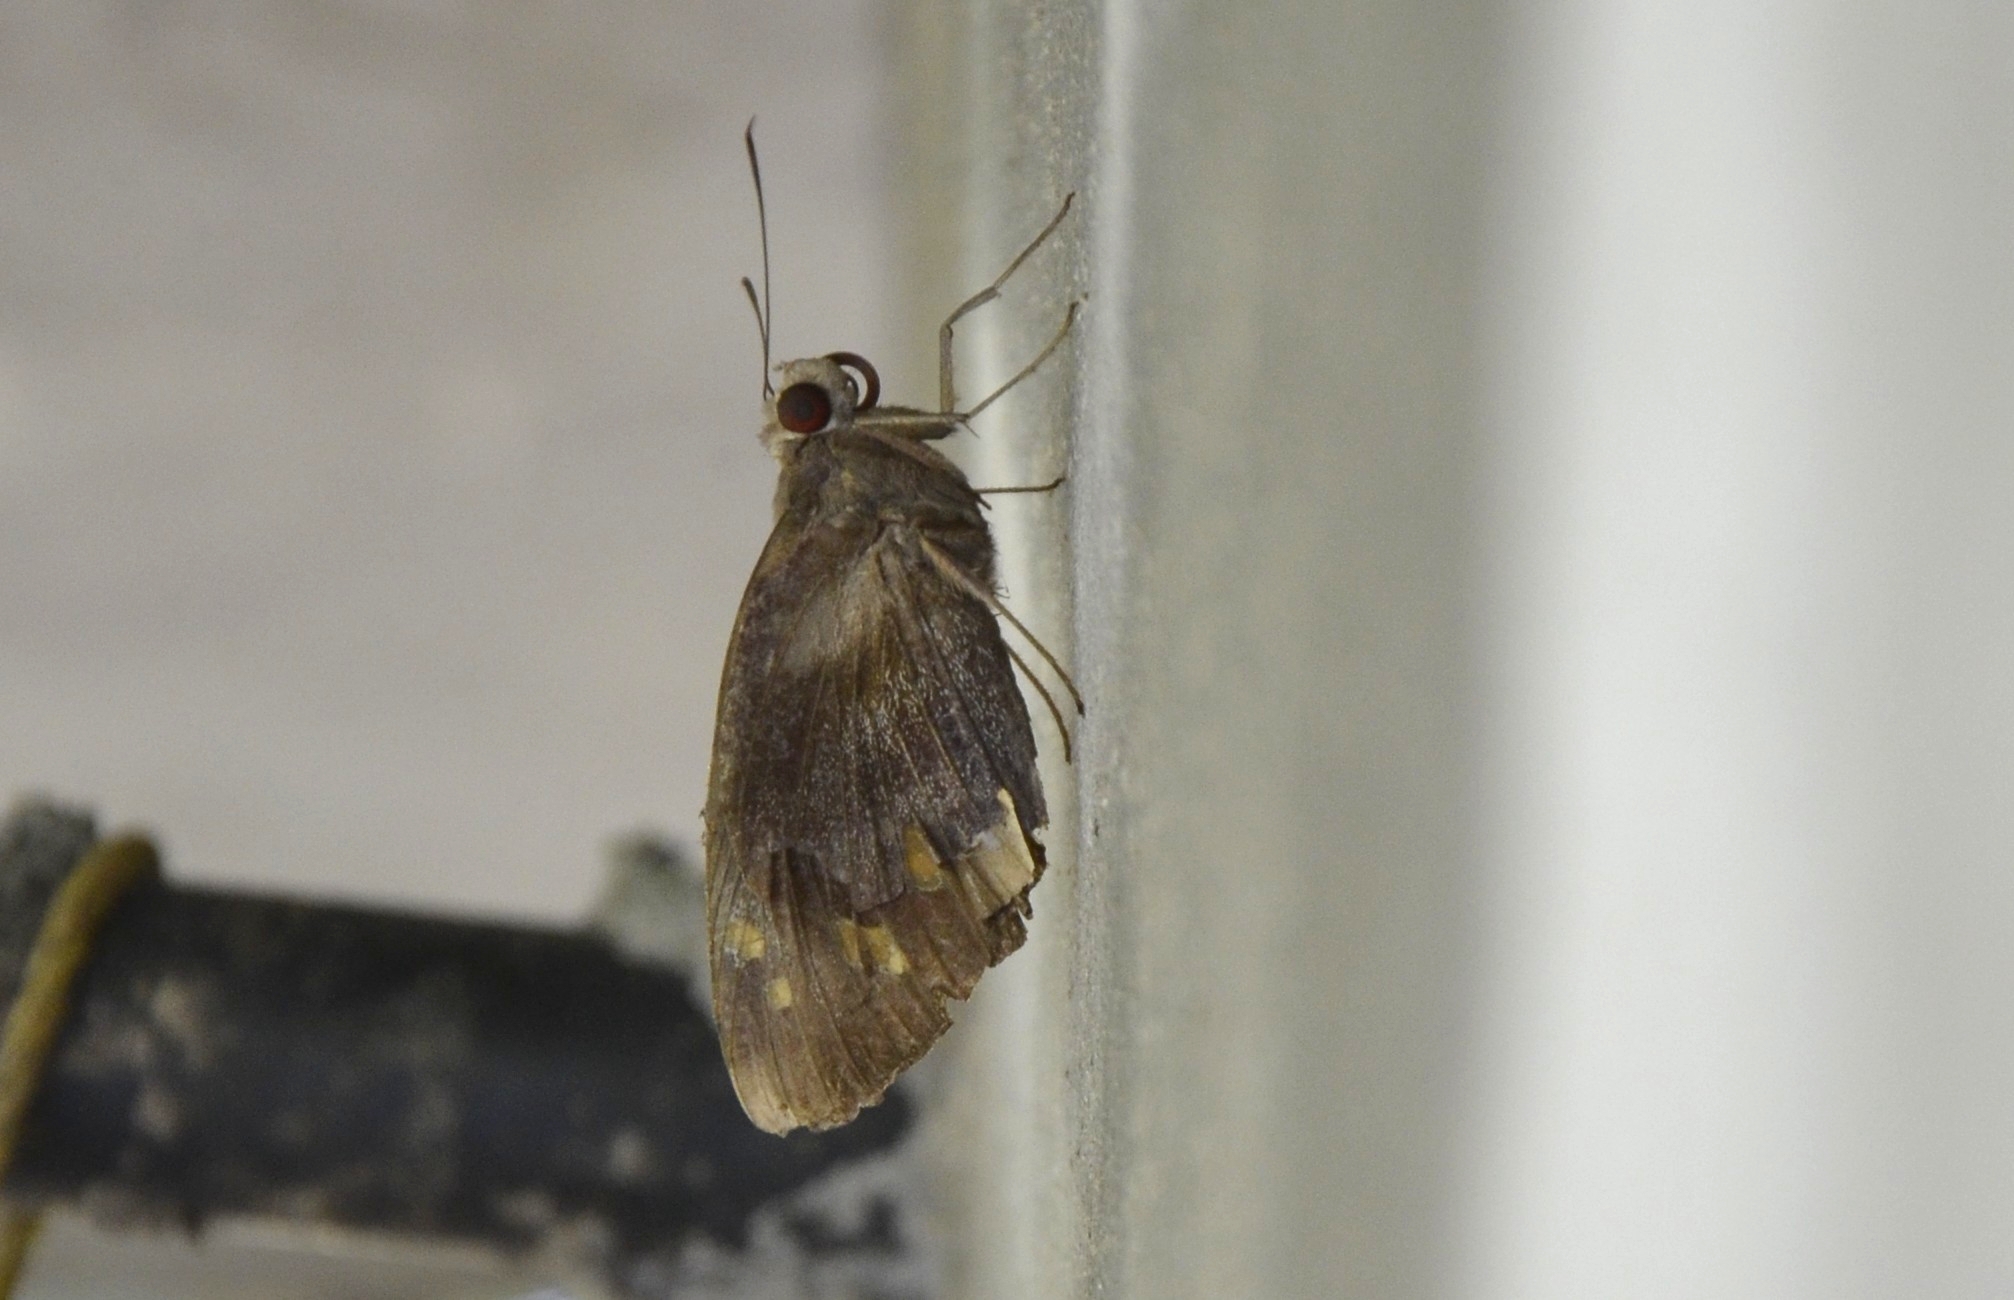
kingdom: Animalia
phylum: Arthropoda
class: Insecta
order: Lepidoptera
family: Hesperiidae
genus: Gangara
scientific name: Gangara thyrsis
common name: Giant redeye
